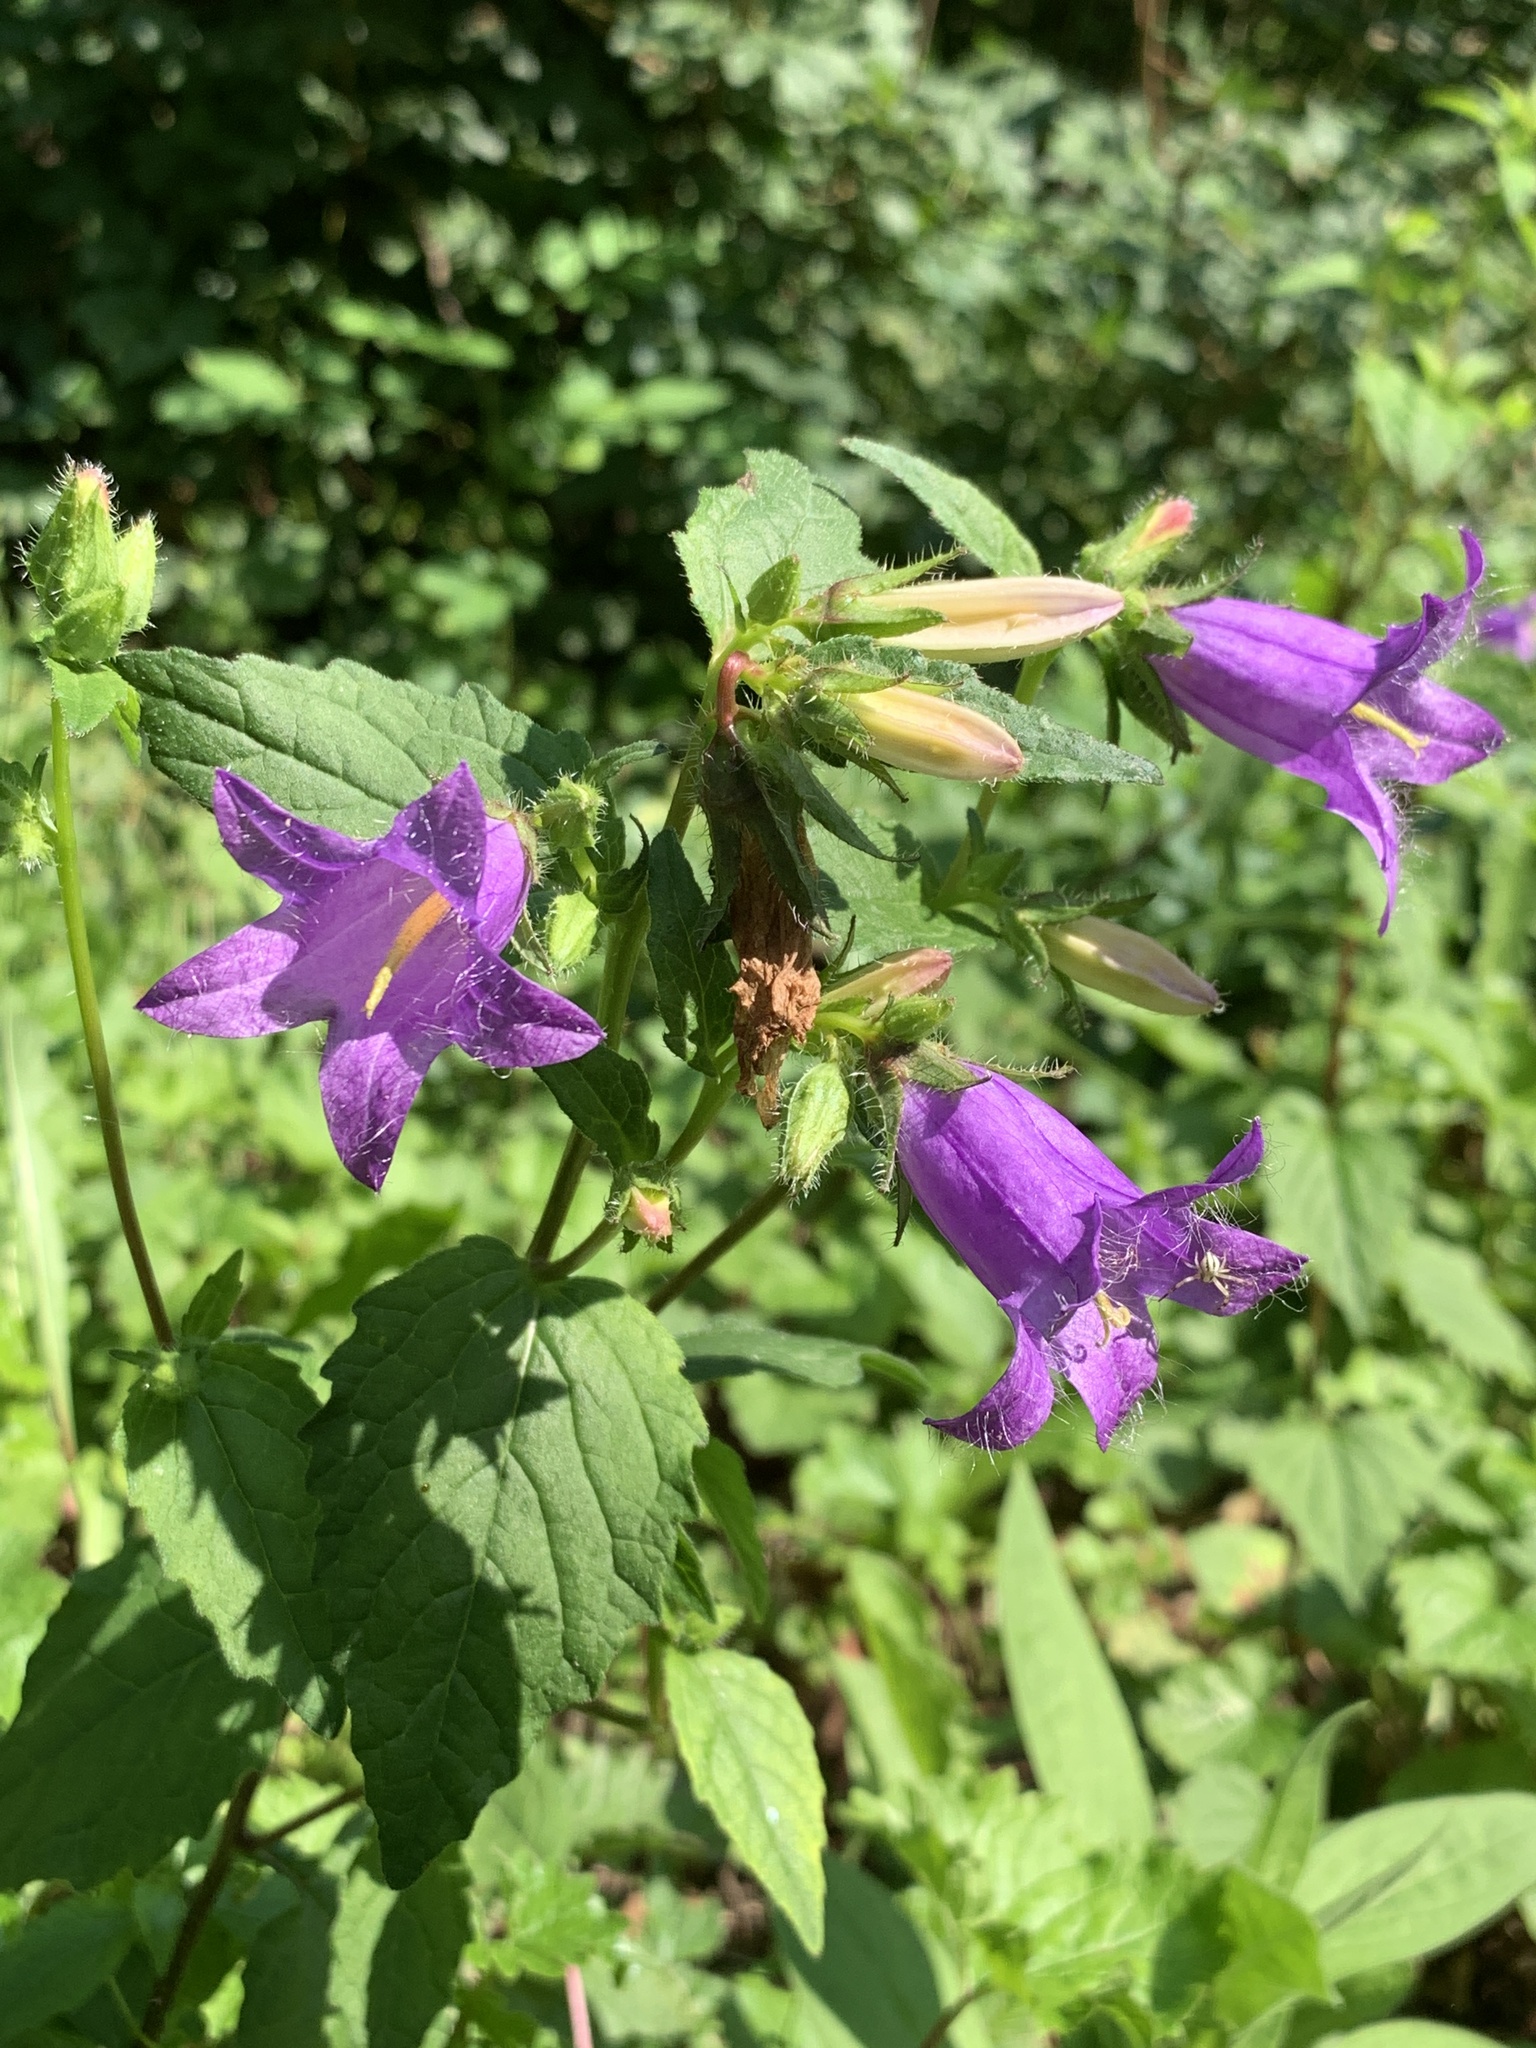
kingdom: Plantae
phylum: Tracheophyta
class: Magnoliopsida
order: Asterales
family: Campanulaceae
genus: Campanula
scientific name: Campanula trachelium
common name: Nettle-leaved bellflower
